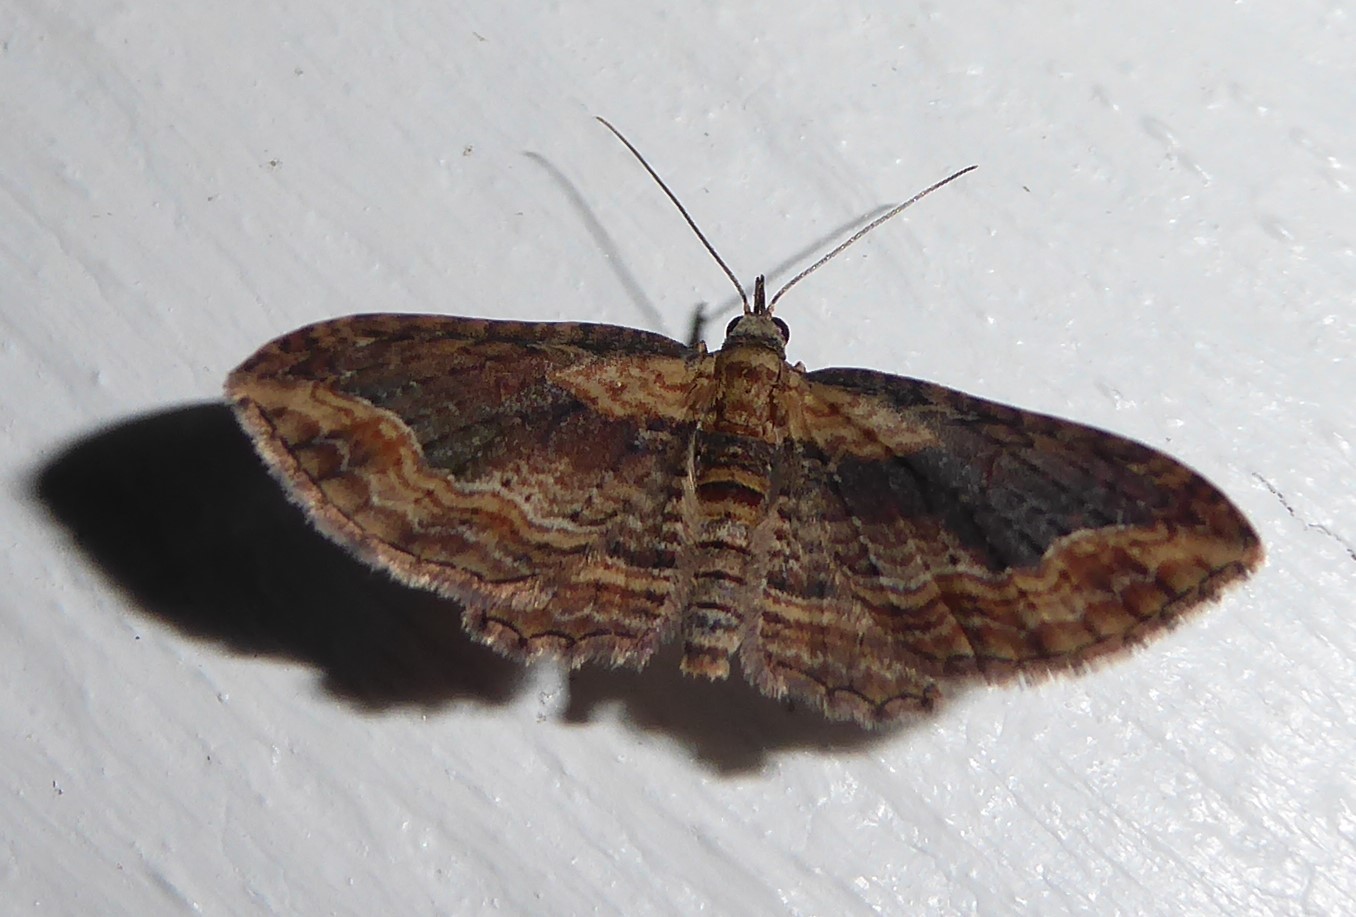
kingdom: Animalia
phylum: Arthropoda
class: Insecta
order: Lepidoptera
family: Geometridae
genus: Chloroclystis
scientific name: Chloroclystis filata
